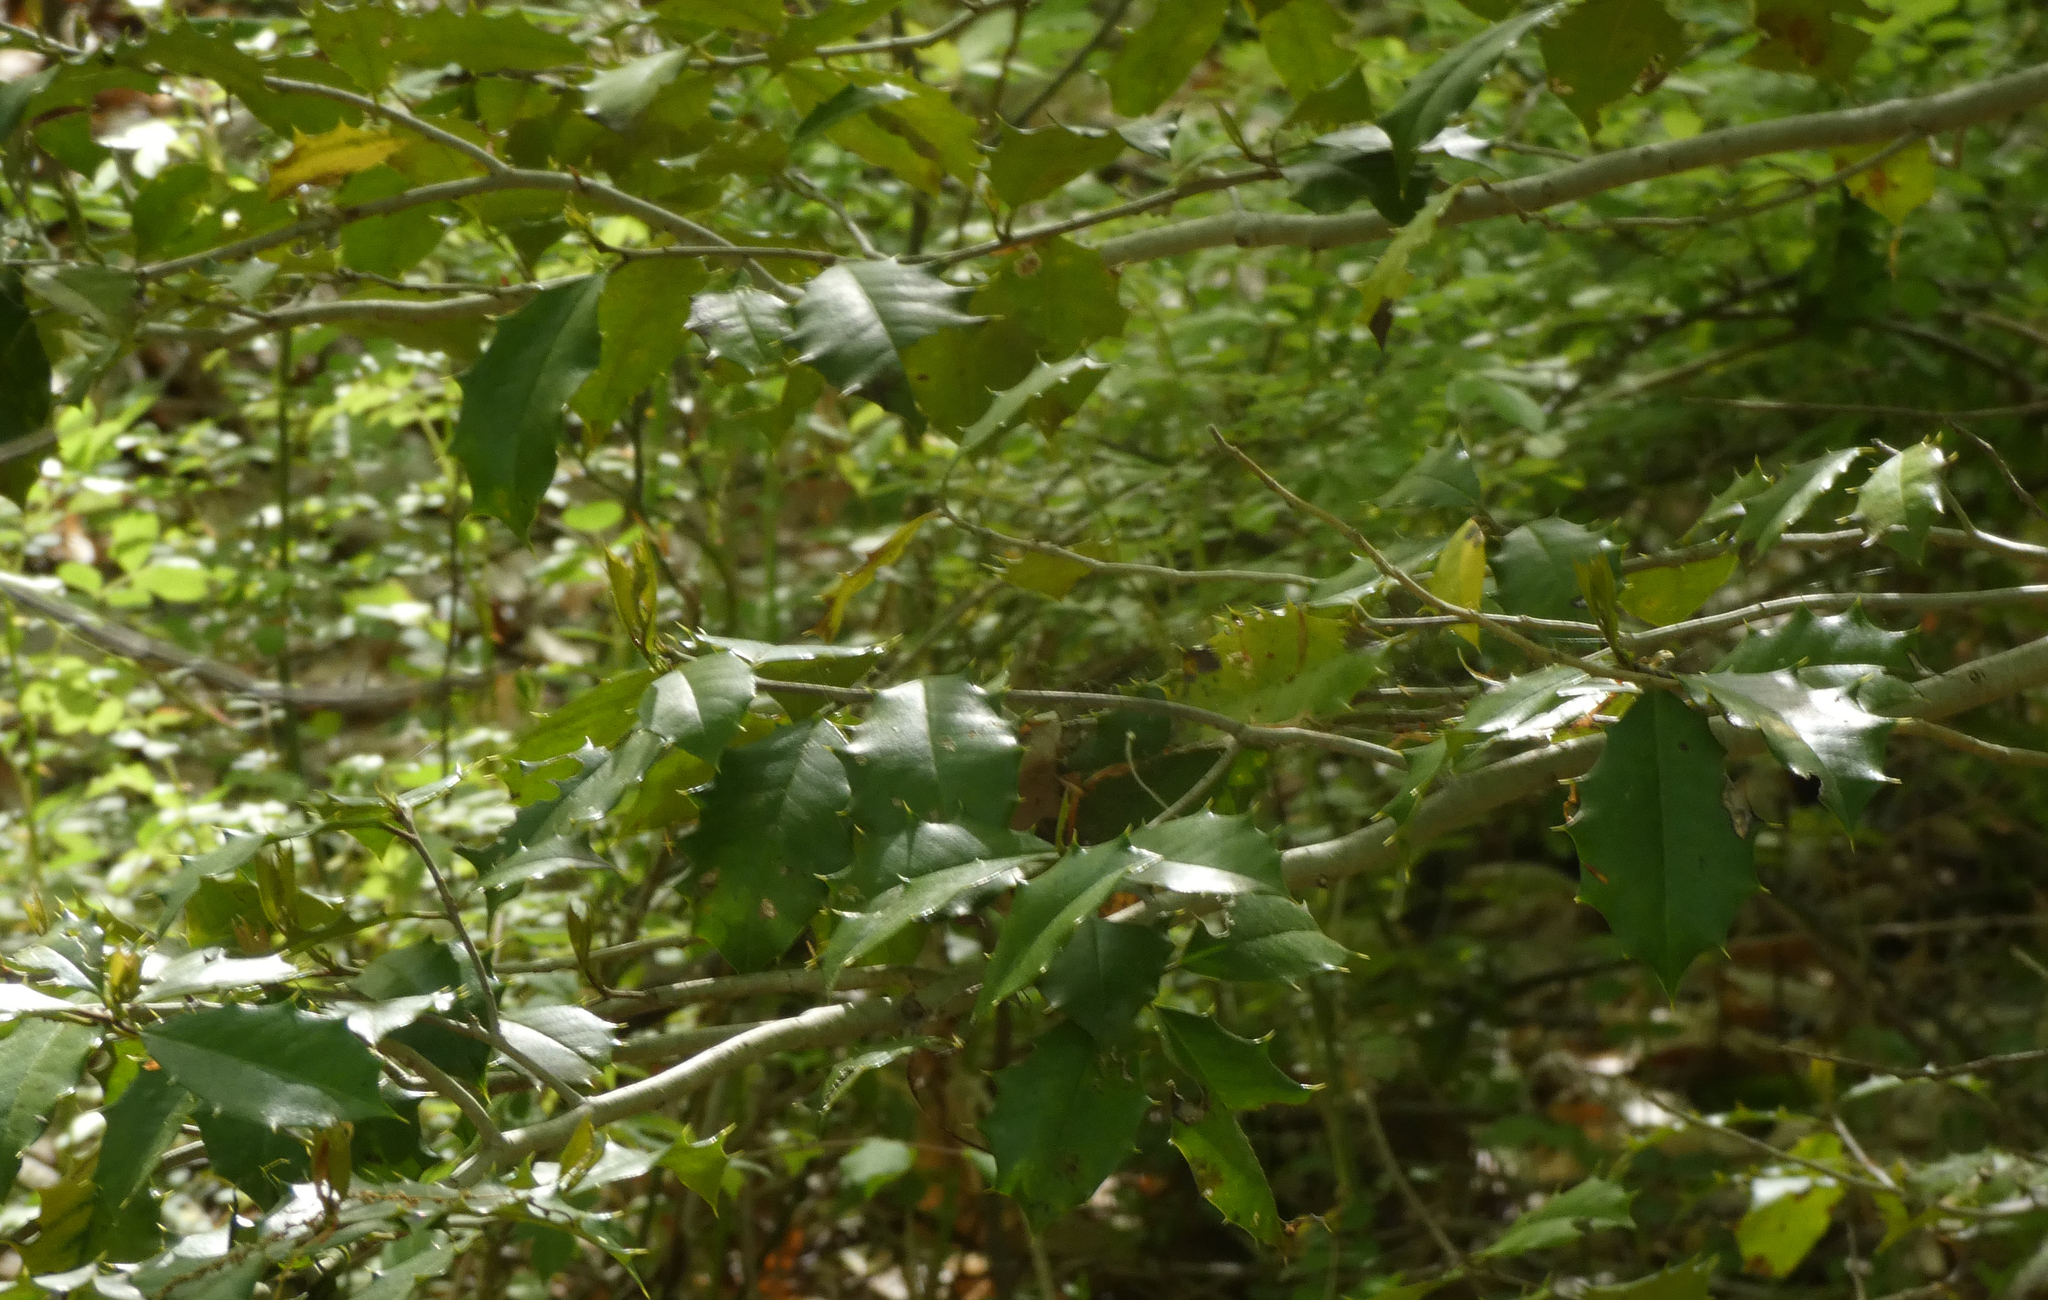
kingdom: Plantae
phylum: Tracheophyta
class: Magnoliopsida
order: Aquifoliales
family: Aquifoliaceae
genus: Ilex
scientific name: Ilex opaca
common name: American holly
